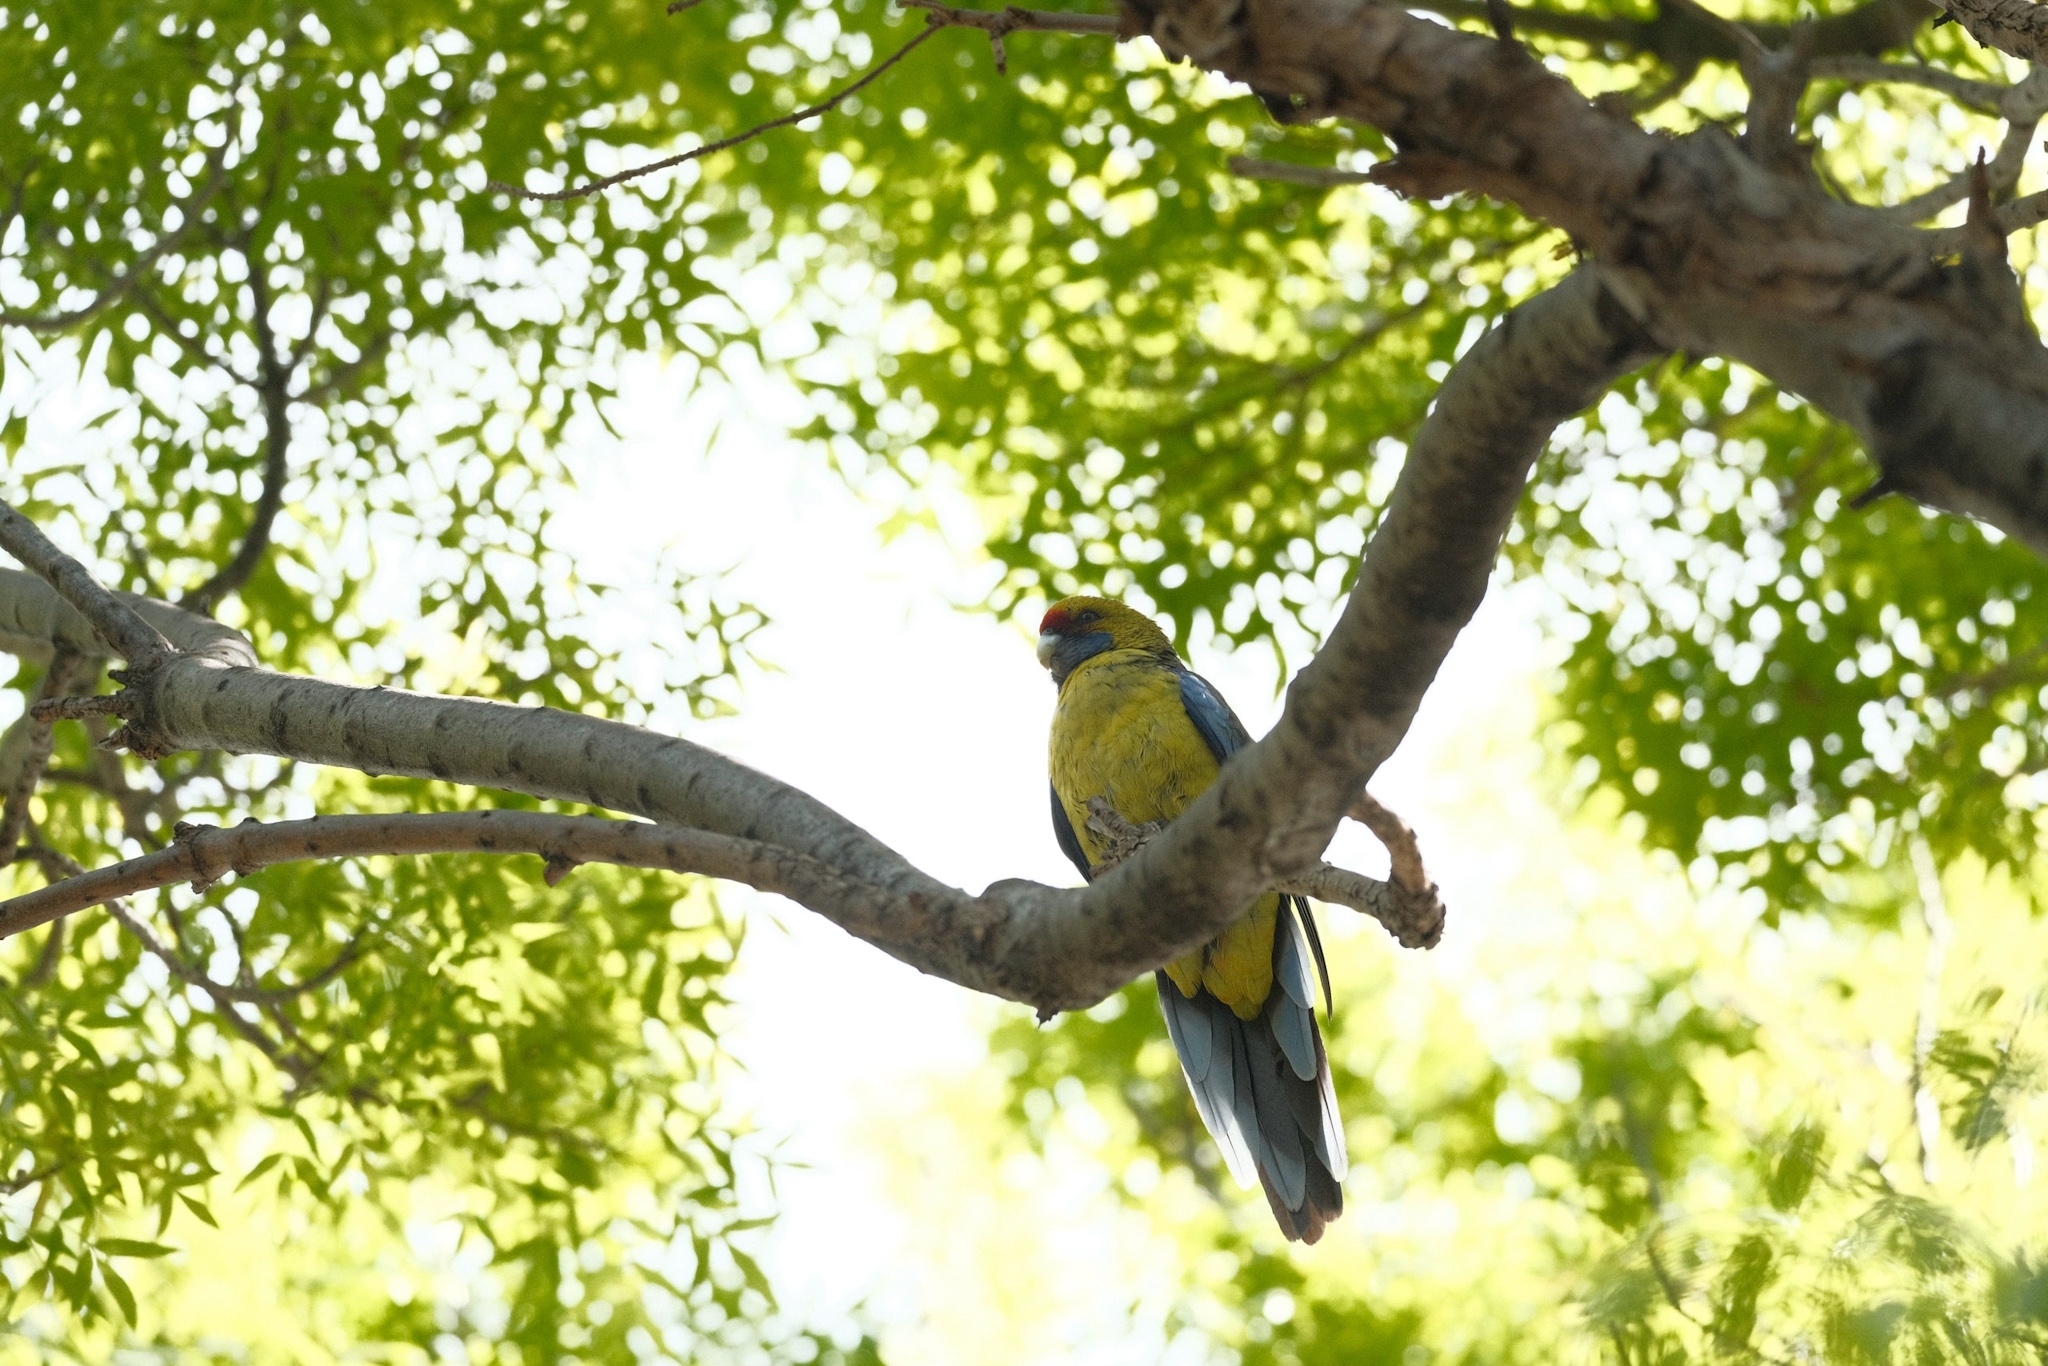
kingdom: Animalia
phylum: Chordata
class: Aves
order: Psittaciformes
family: Psittacidae
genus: Platycercus
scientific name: Platycercus caledonicus
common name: Green rosella
